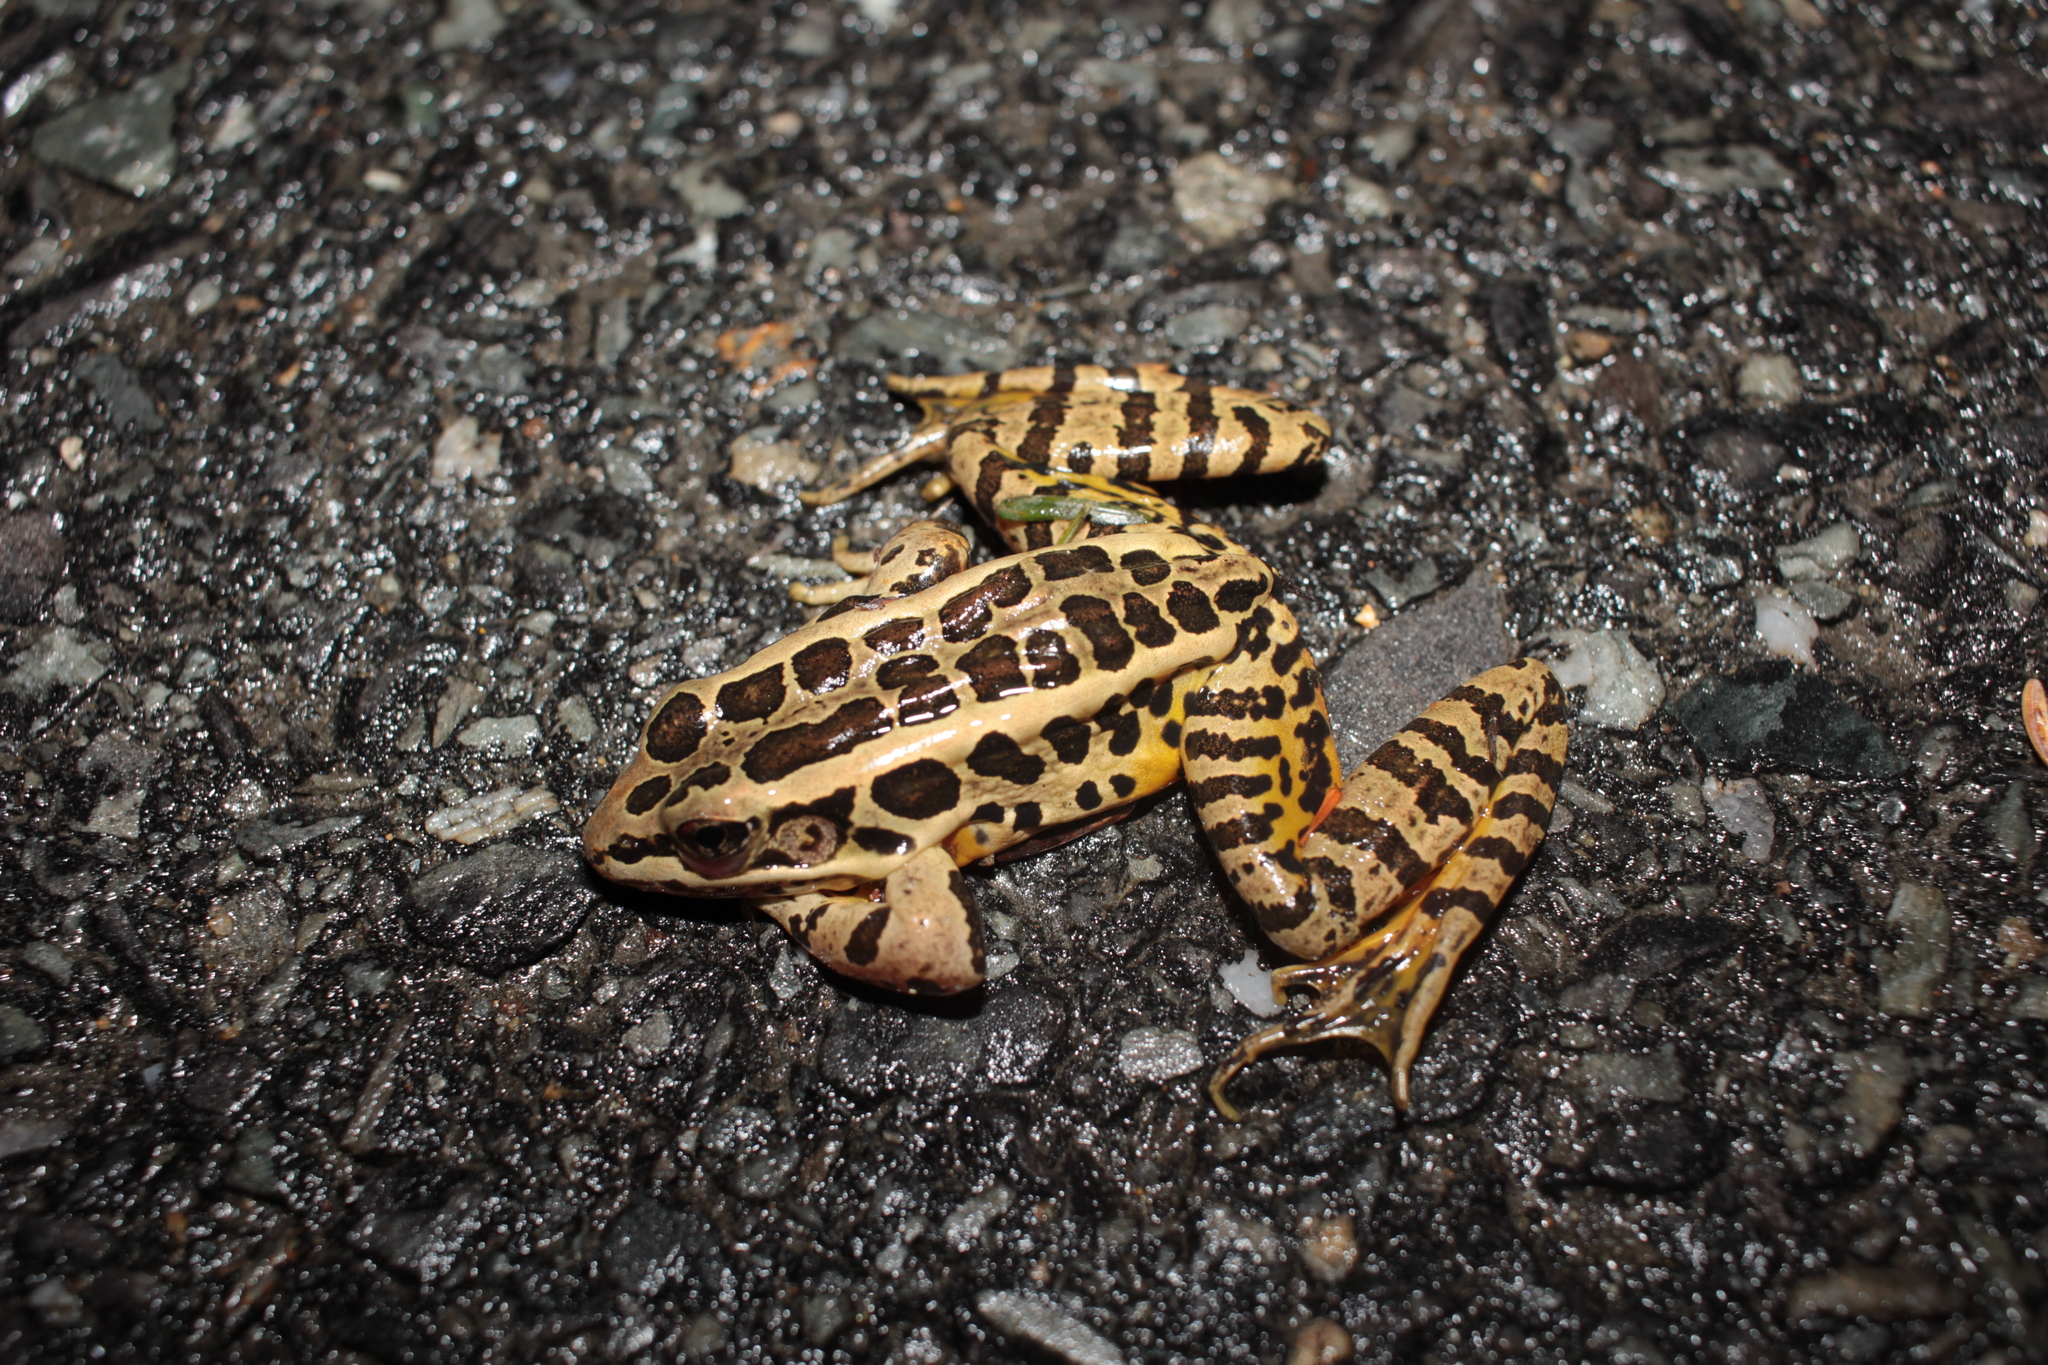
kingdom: Animalia
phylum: Chordata
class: Amphibia
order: Anura
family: Ranidae
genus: Lithobates
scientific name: Lithobates palustris
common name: Pickerel frog
